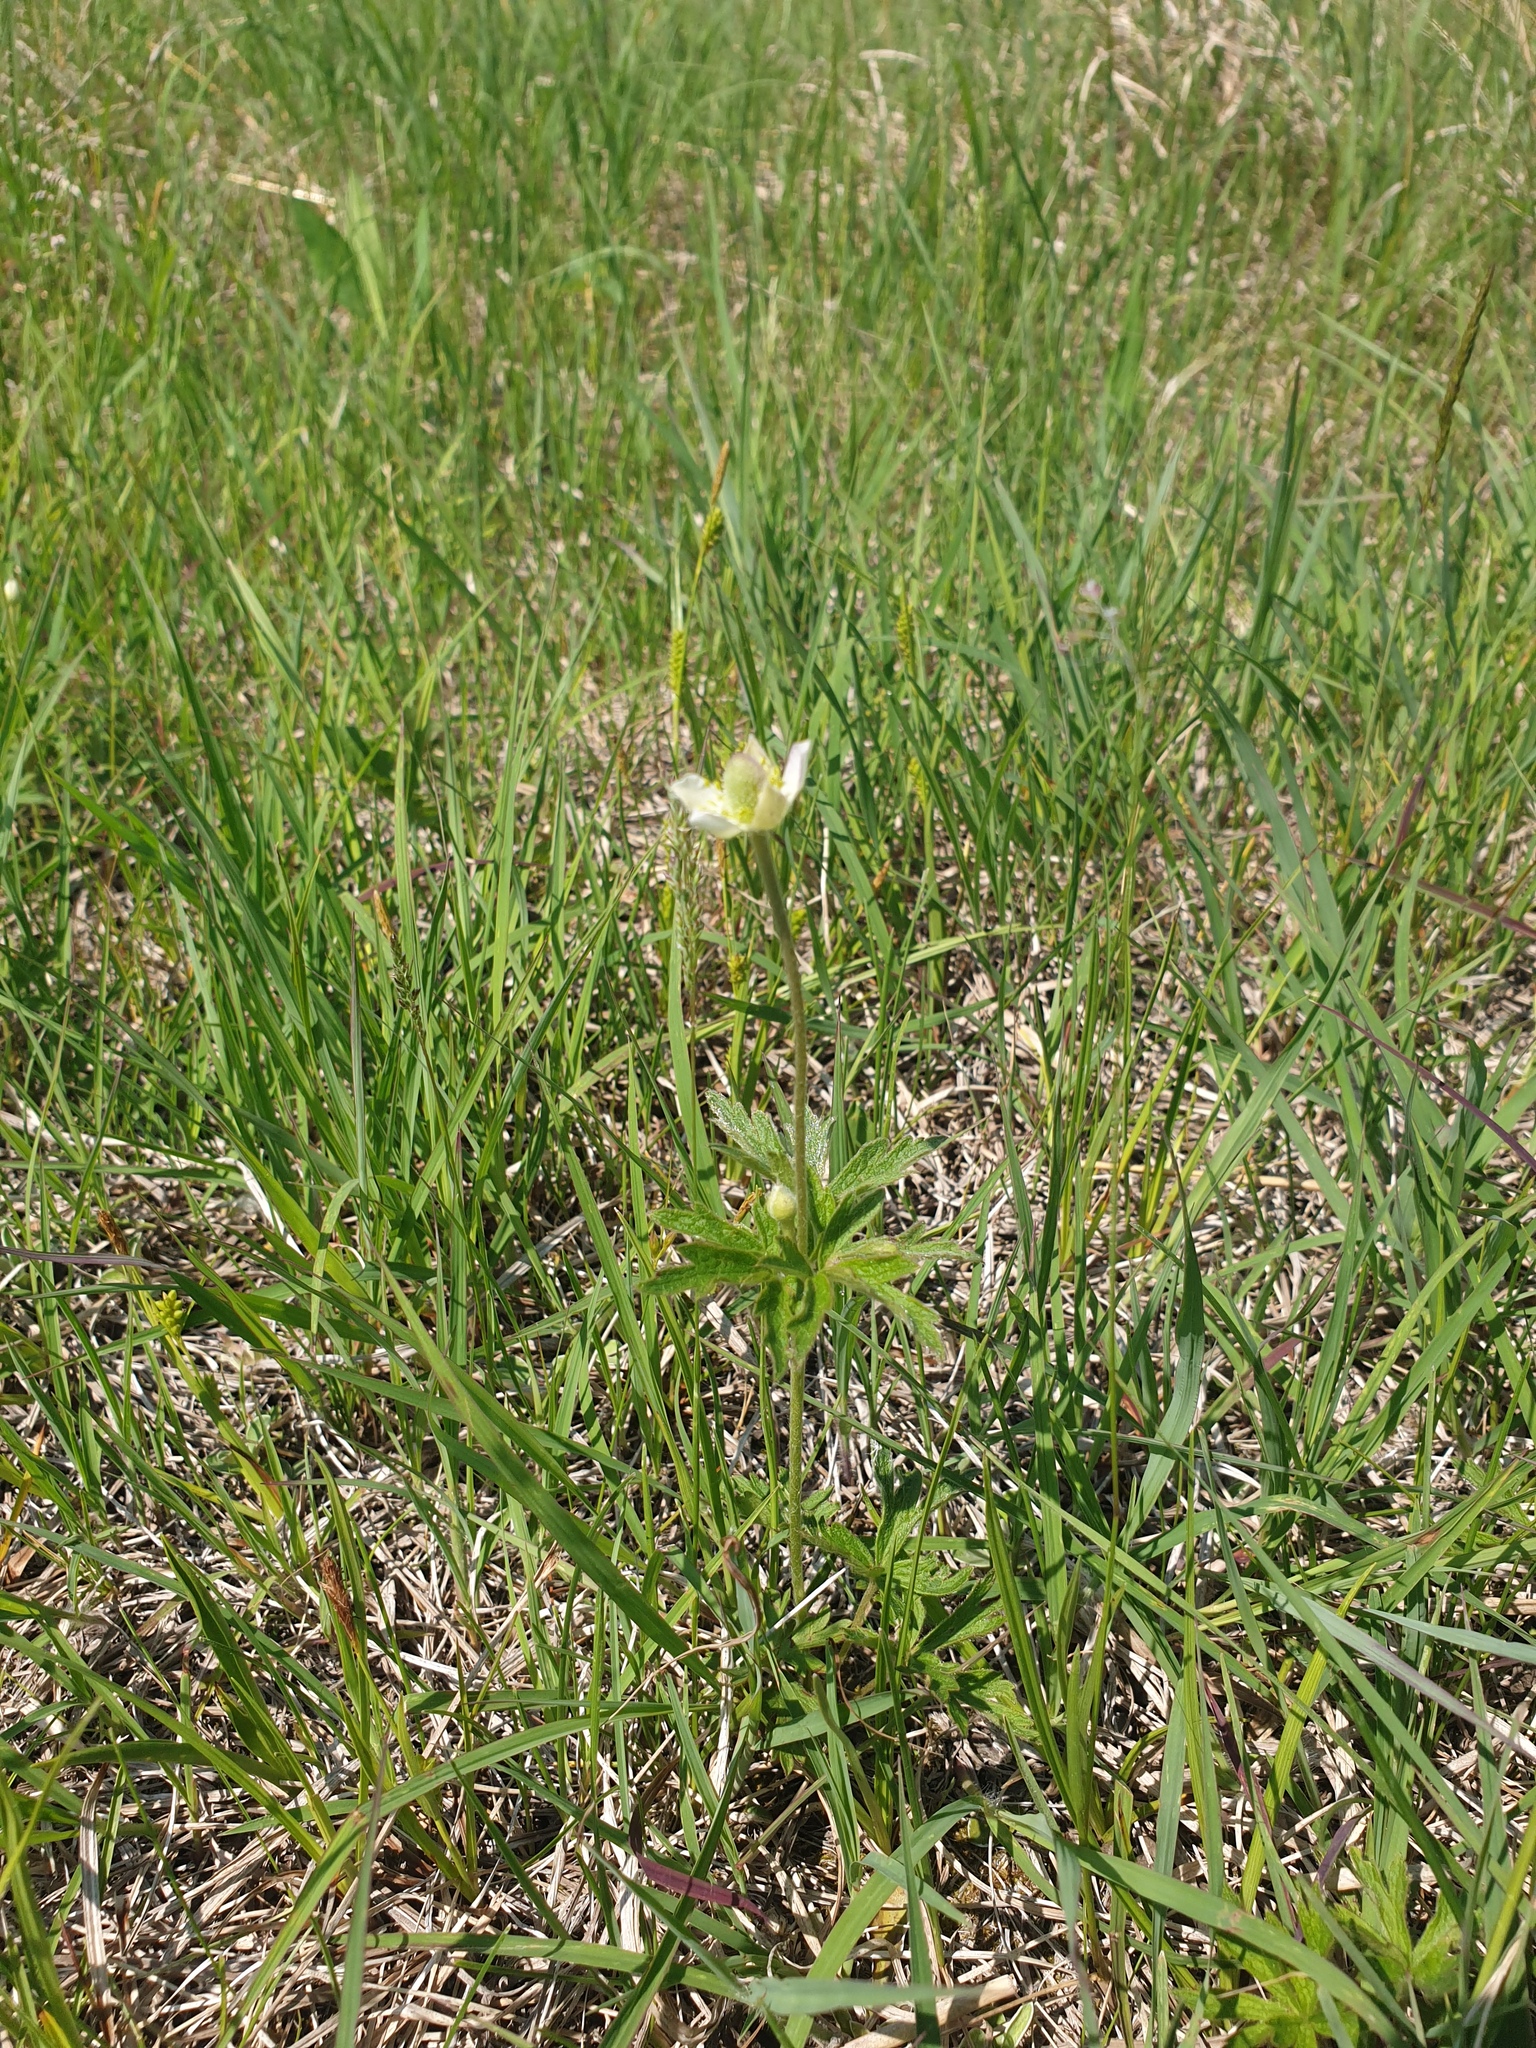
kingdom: Plantae
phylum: Tracheophyta
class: Magnoliopsida
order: Ranunculales
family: Ranunculaceae
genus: Anemone
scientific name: Anemone virginiana
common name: Tall anemone
